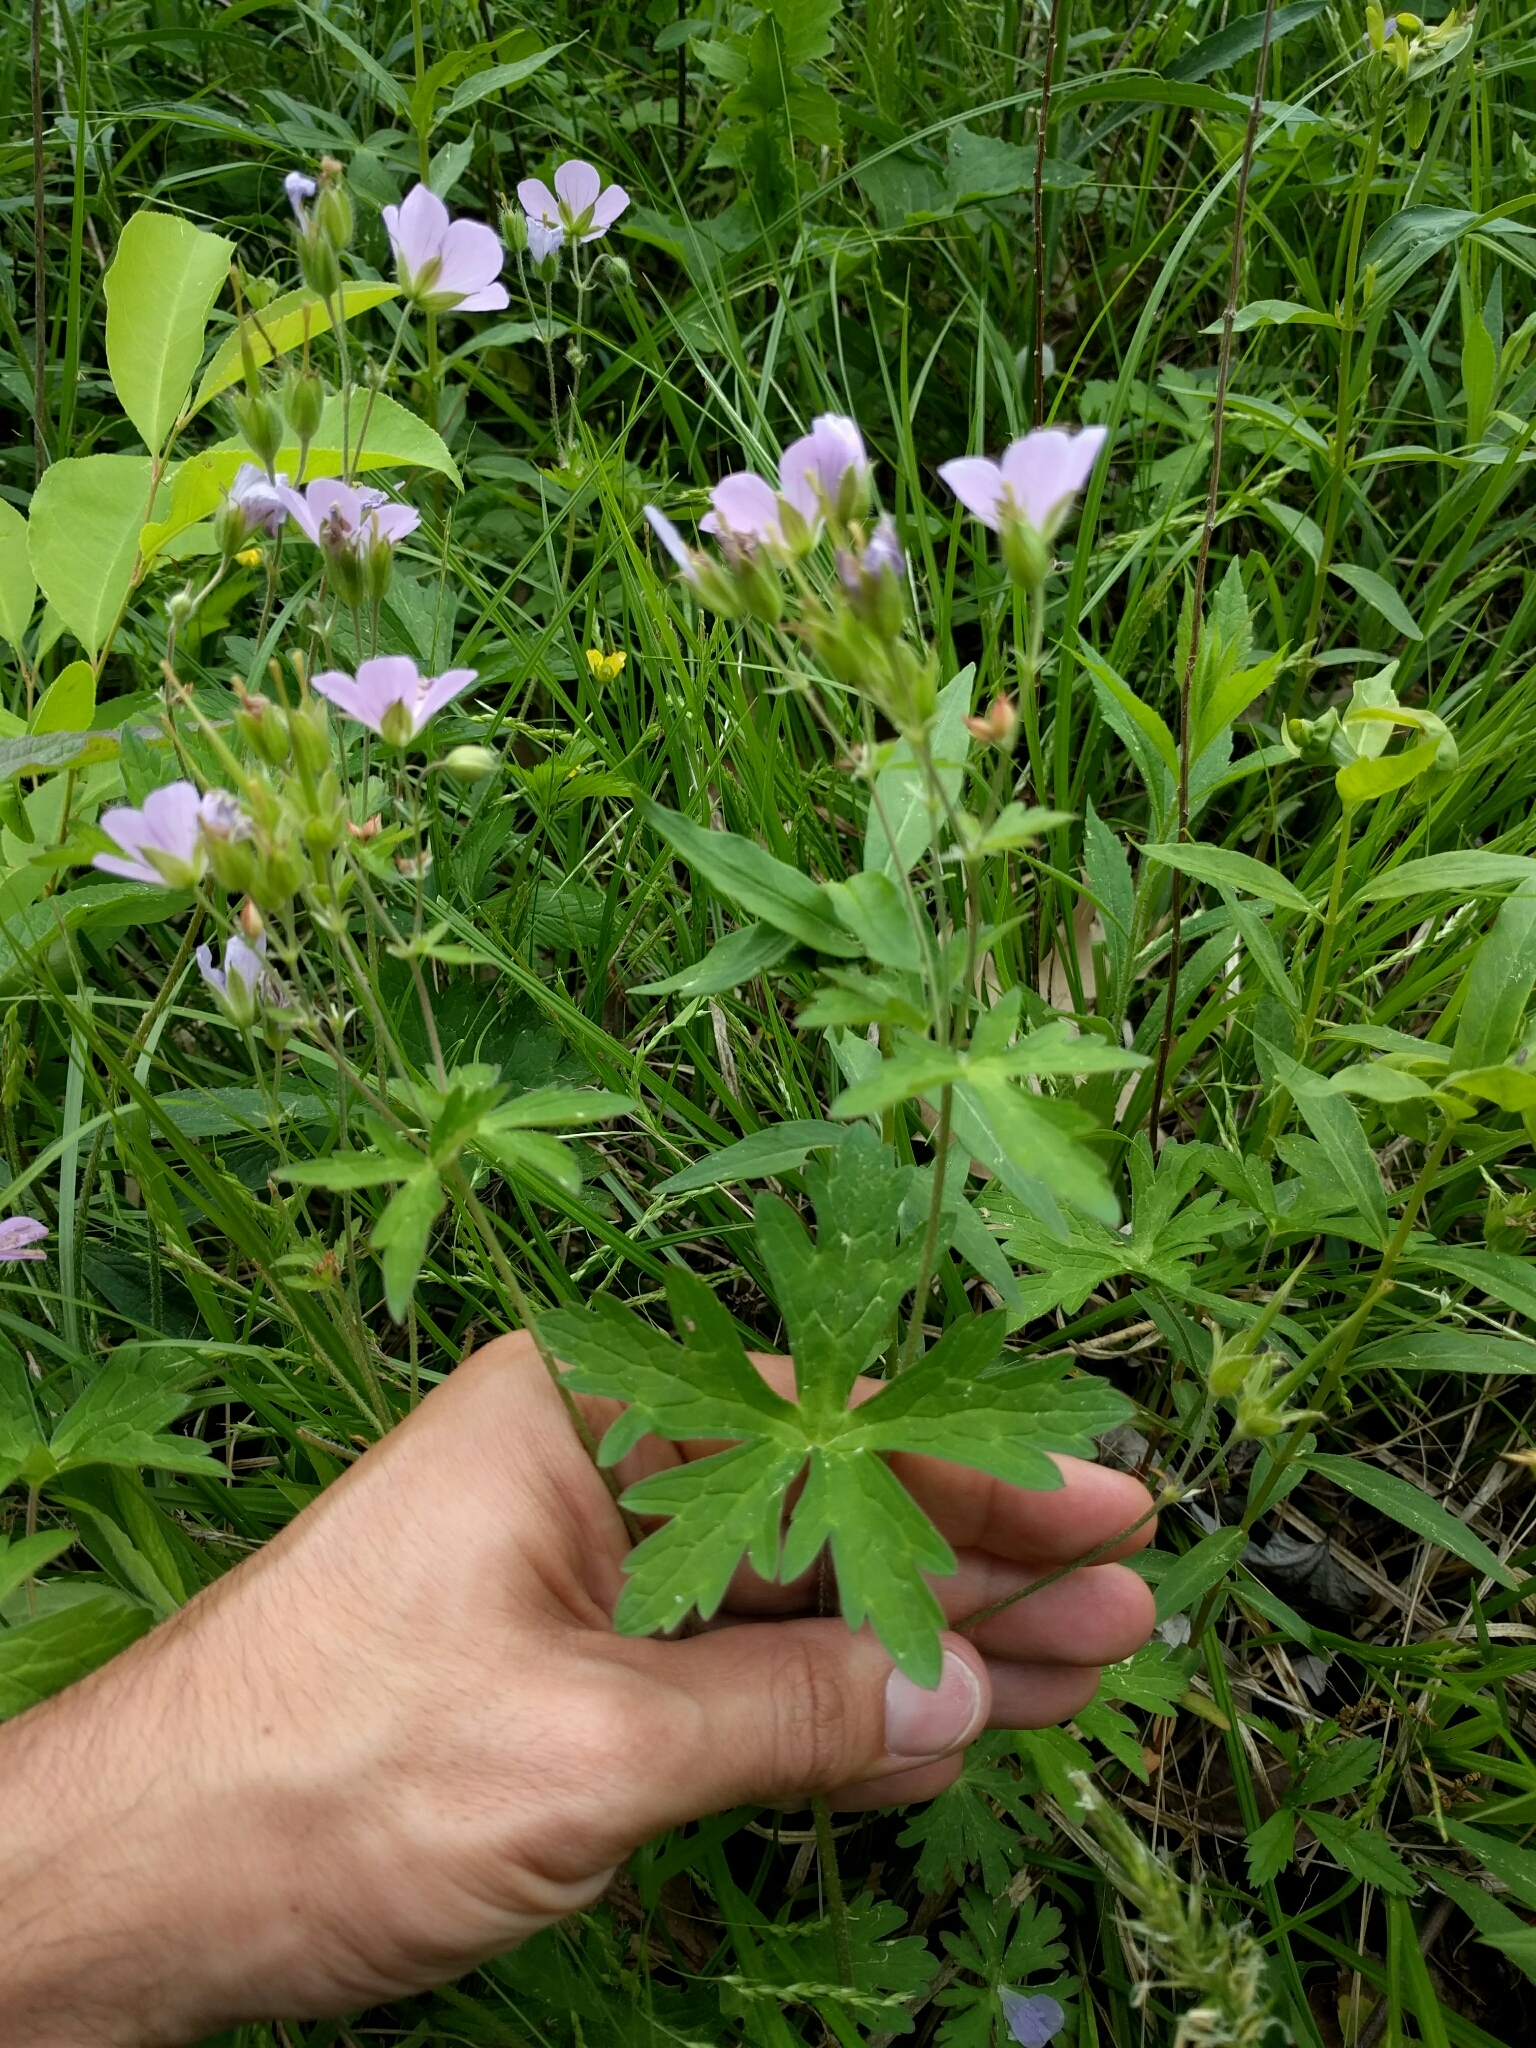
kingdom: Plantae
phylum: Tracheophyta
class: Magnoliopsida
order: Geraniales
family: Geraniaceae
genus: Geranium
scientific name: Geranium maculatum
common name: Spotted geranium
